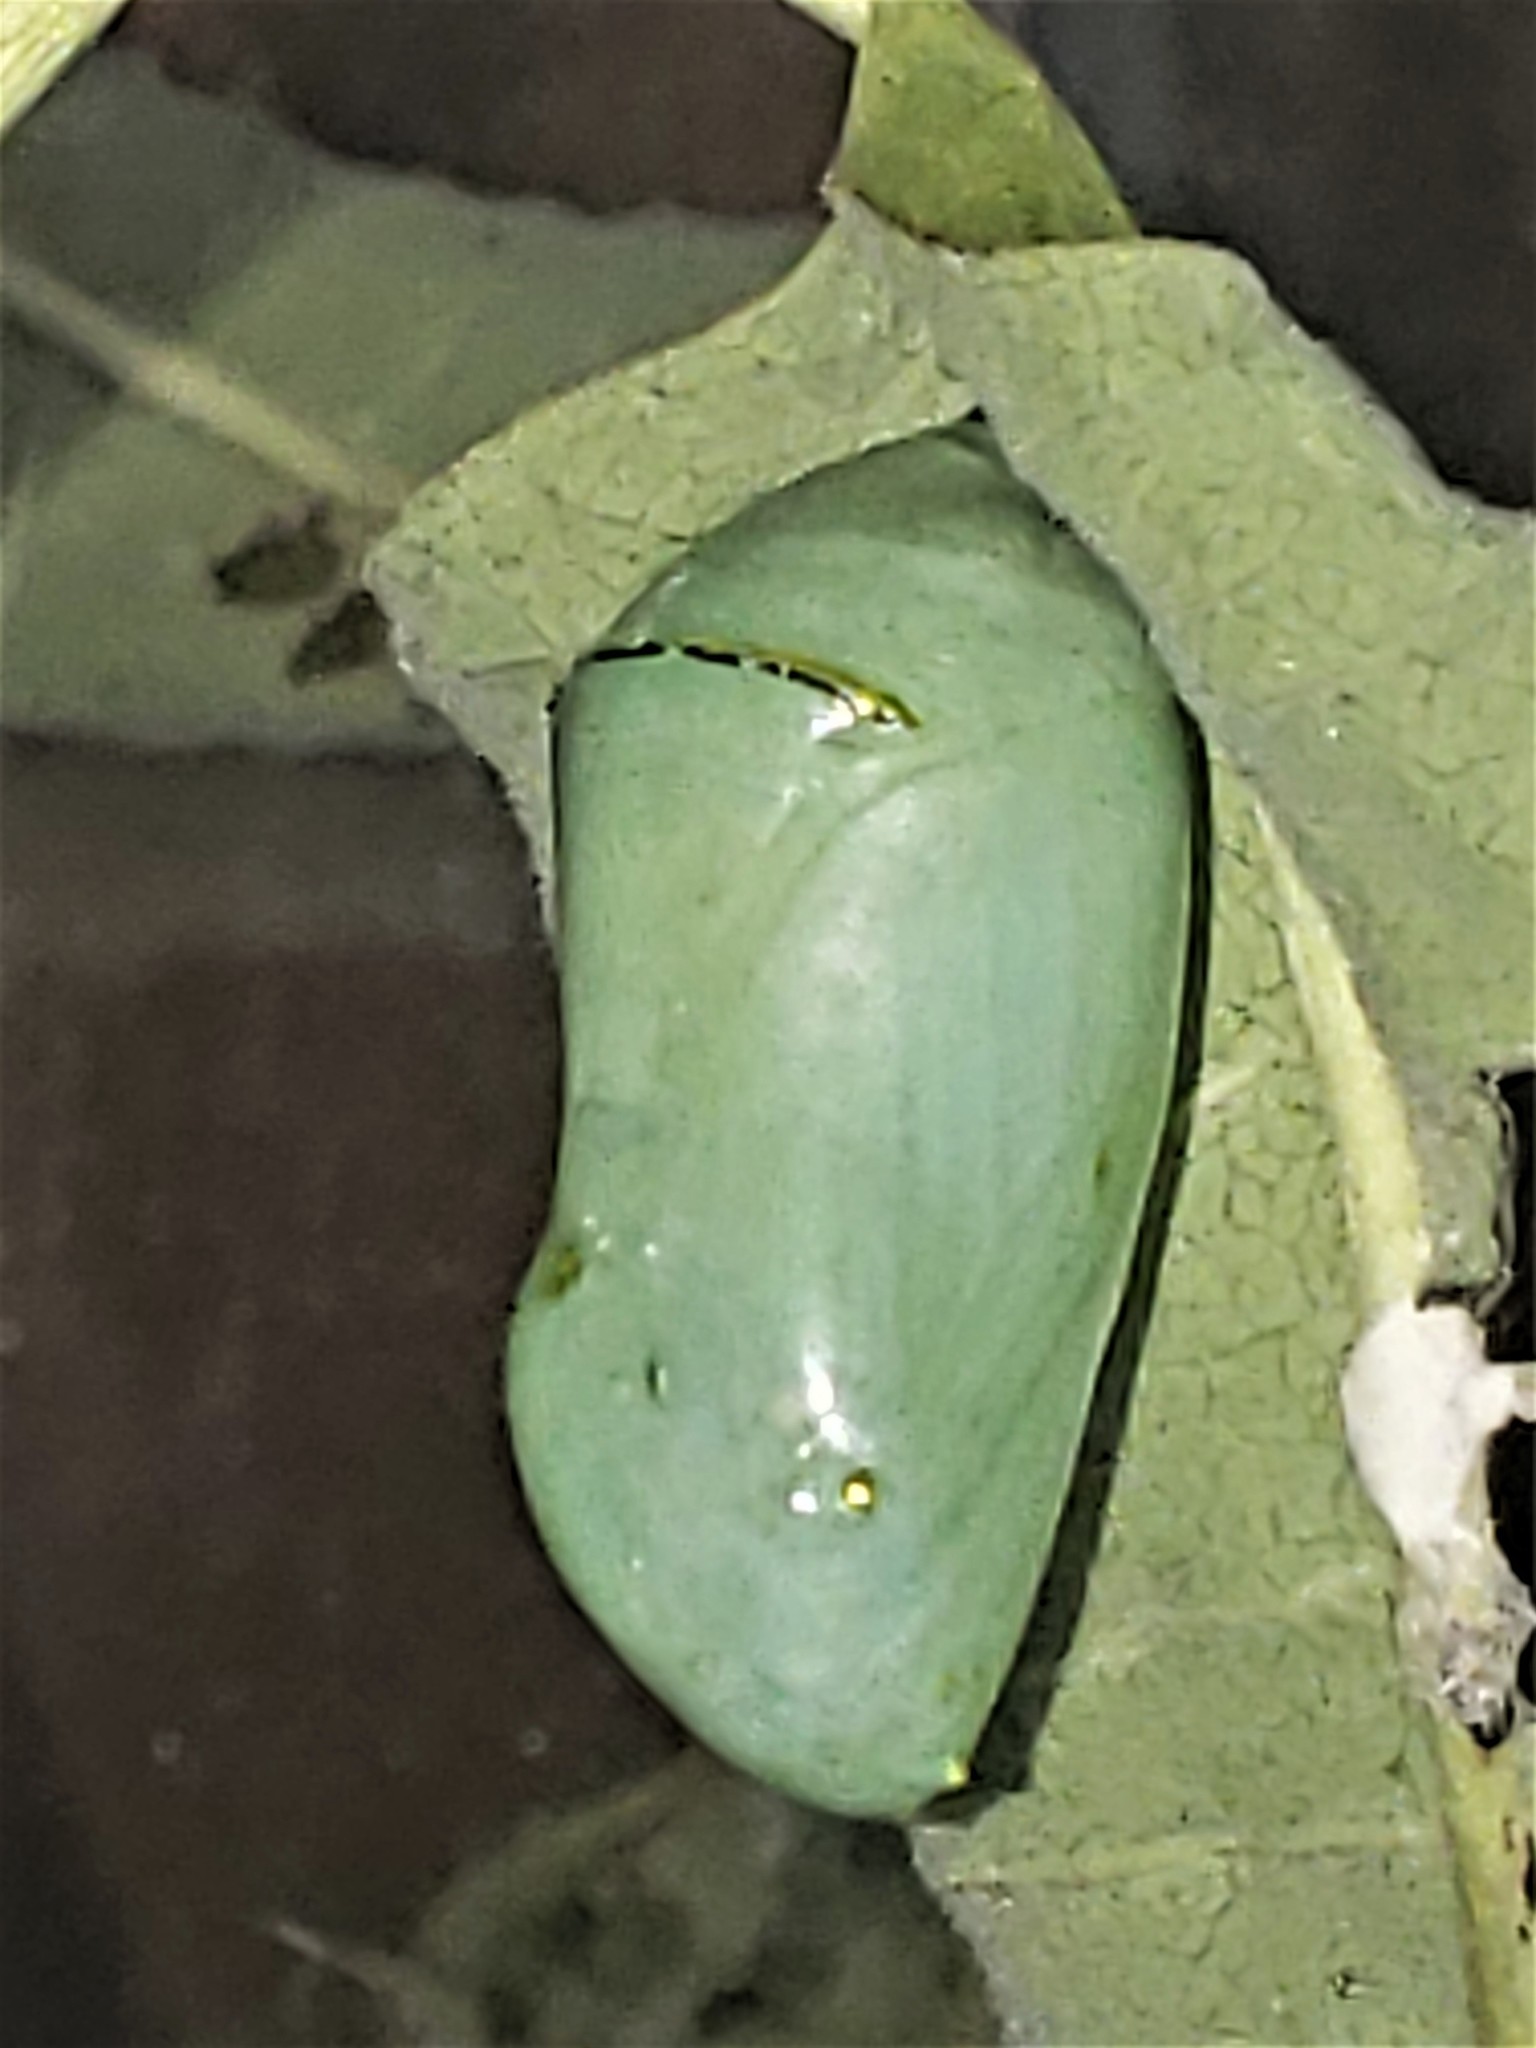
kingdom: Animalia
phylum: Arthropoda
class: Insecta
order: Lepidoptera
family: Nymphalidae
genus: Danaus
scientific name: Danaus plexippus
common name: Monarch
